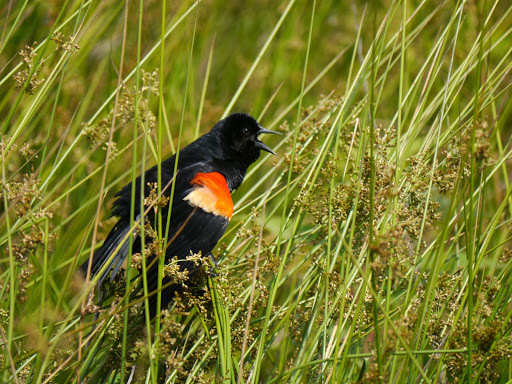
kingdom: Animalia
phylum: Chordata
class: Aves
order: Passeriformes
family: Icteridae
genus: Agelaius
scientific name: Agelaius phoeniceus
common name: Red-winged blackbird
